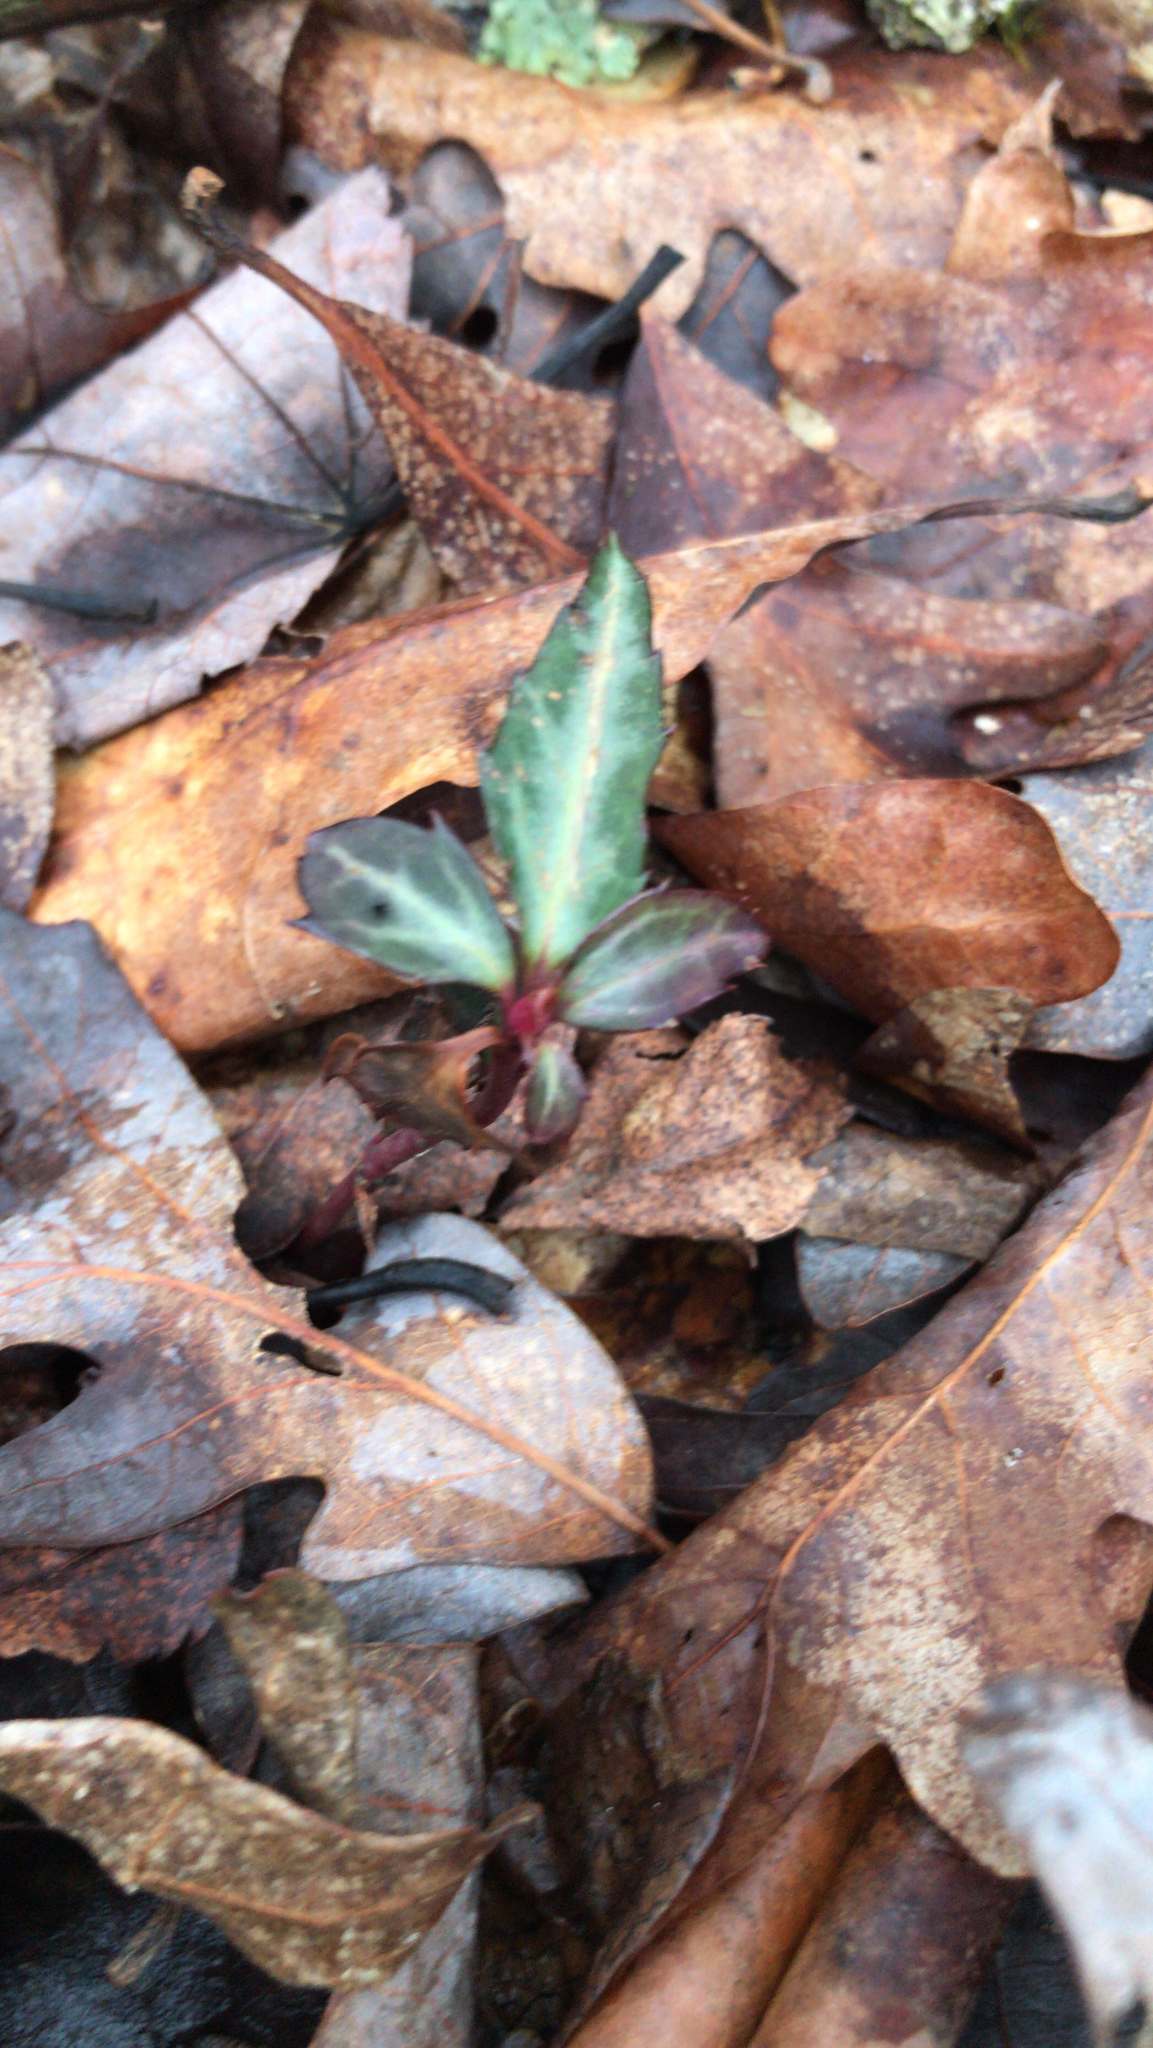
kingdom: Plantae
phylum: Tracheophyta
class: Magnoliopsida
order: Ericales
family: Ericaceae
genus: Chimaphila
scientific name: Chimaphila maculata
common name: Spotted pipsissewa
